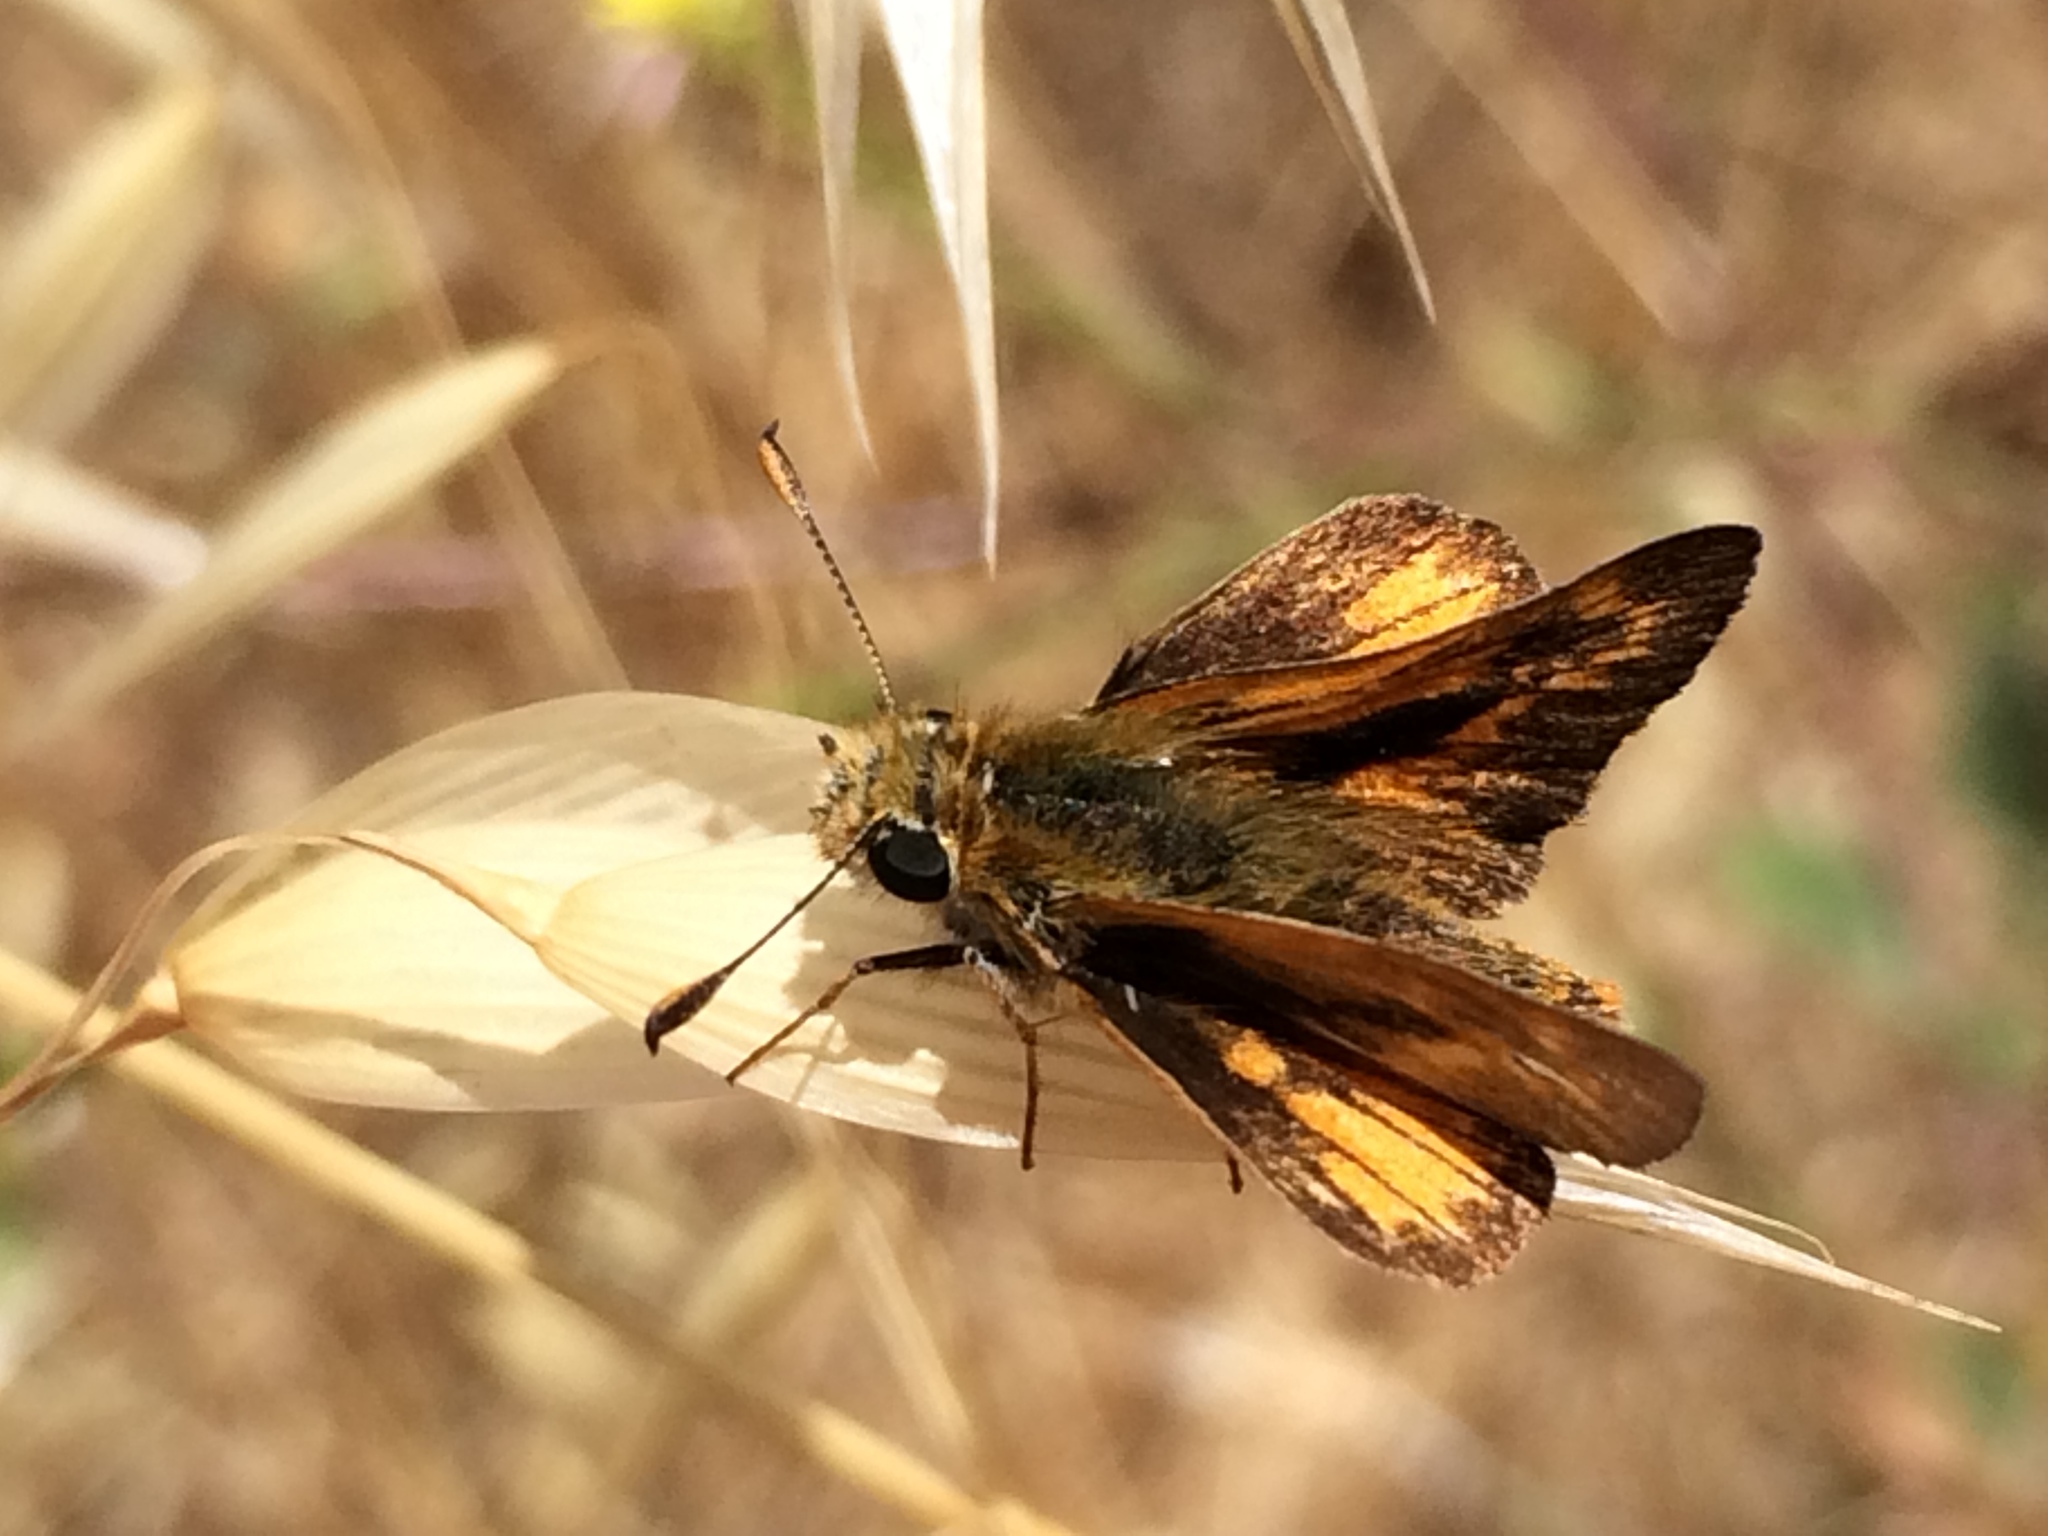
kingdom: Animalia
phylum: Arthropoda
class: Insecta
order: Lepidoptera
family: Hesperiidae
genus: Ochlodes
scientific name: Ochlodes agricola
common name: Rural skipper
